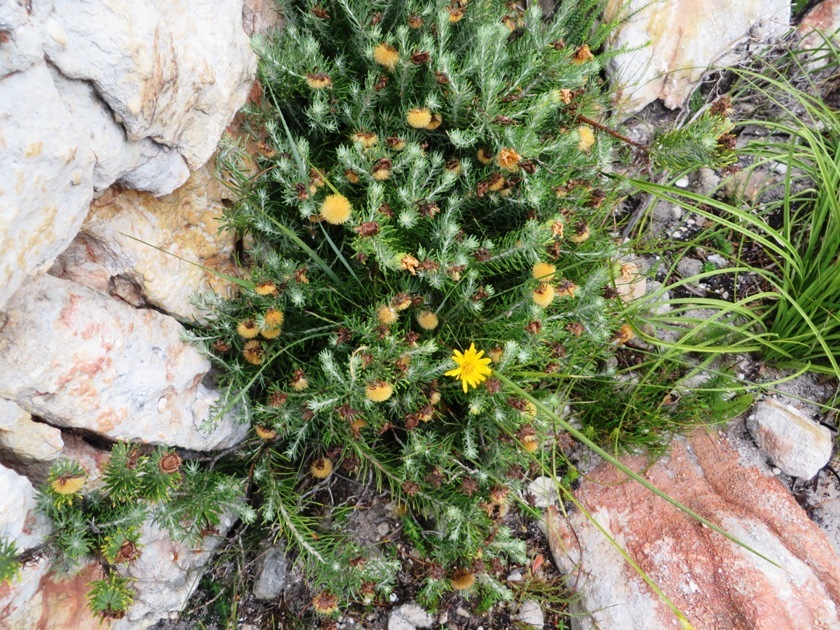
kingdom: Plantae
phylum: Tracheophyta
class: Magnoliopsida
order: Asterales
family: Asteraceae
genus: Heterolepis
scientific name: Heterolepis aliena
